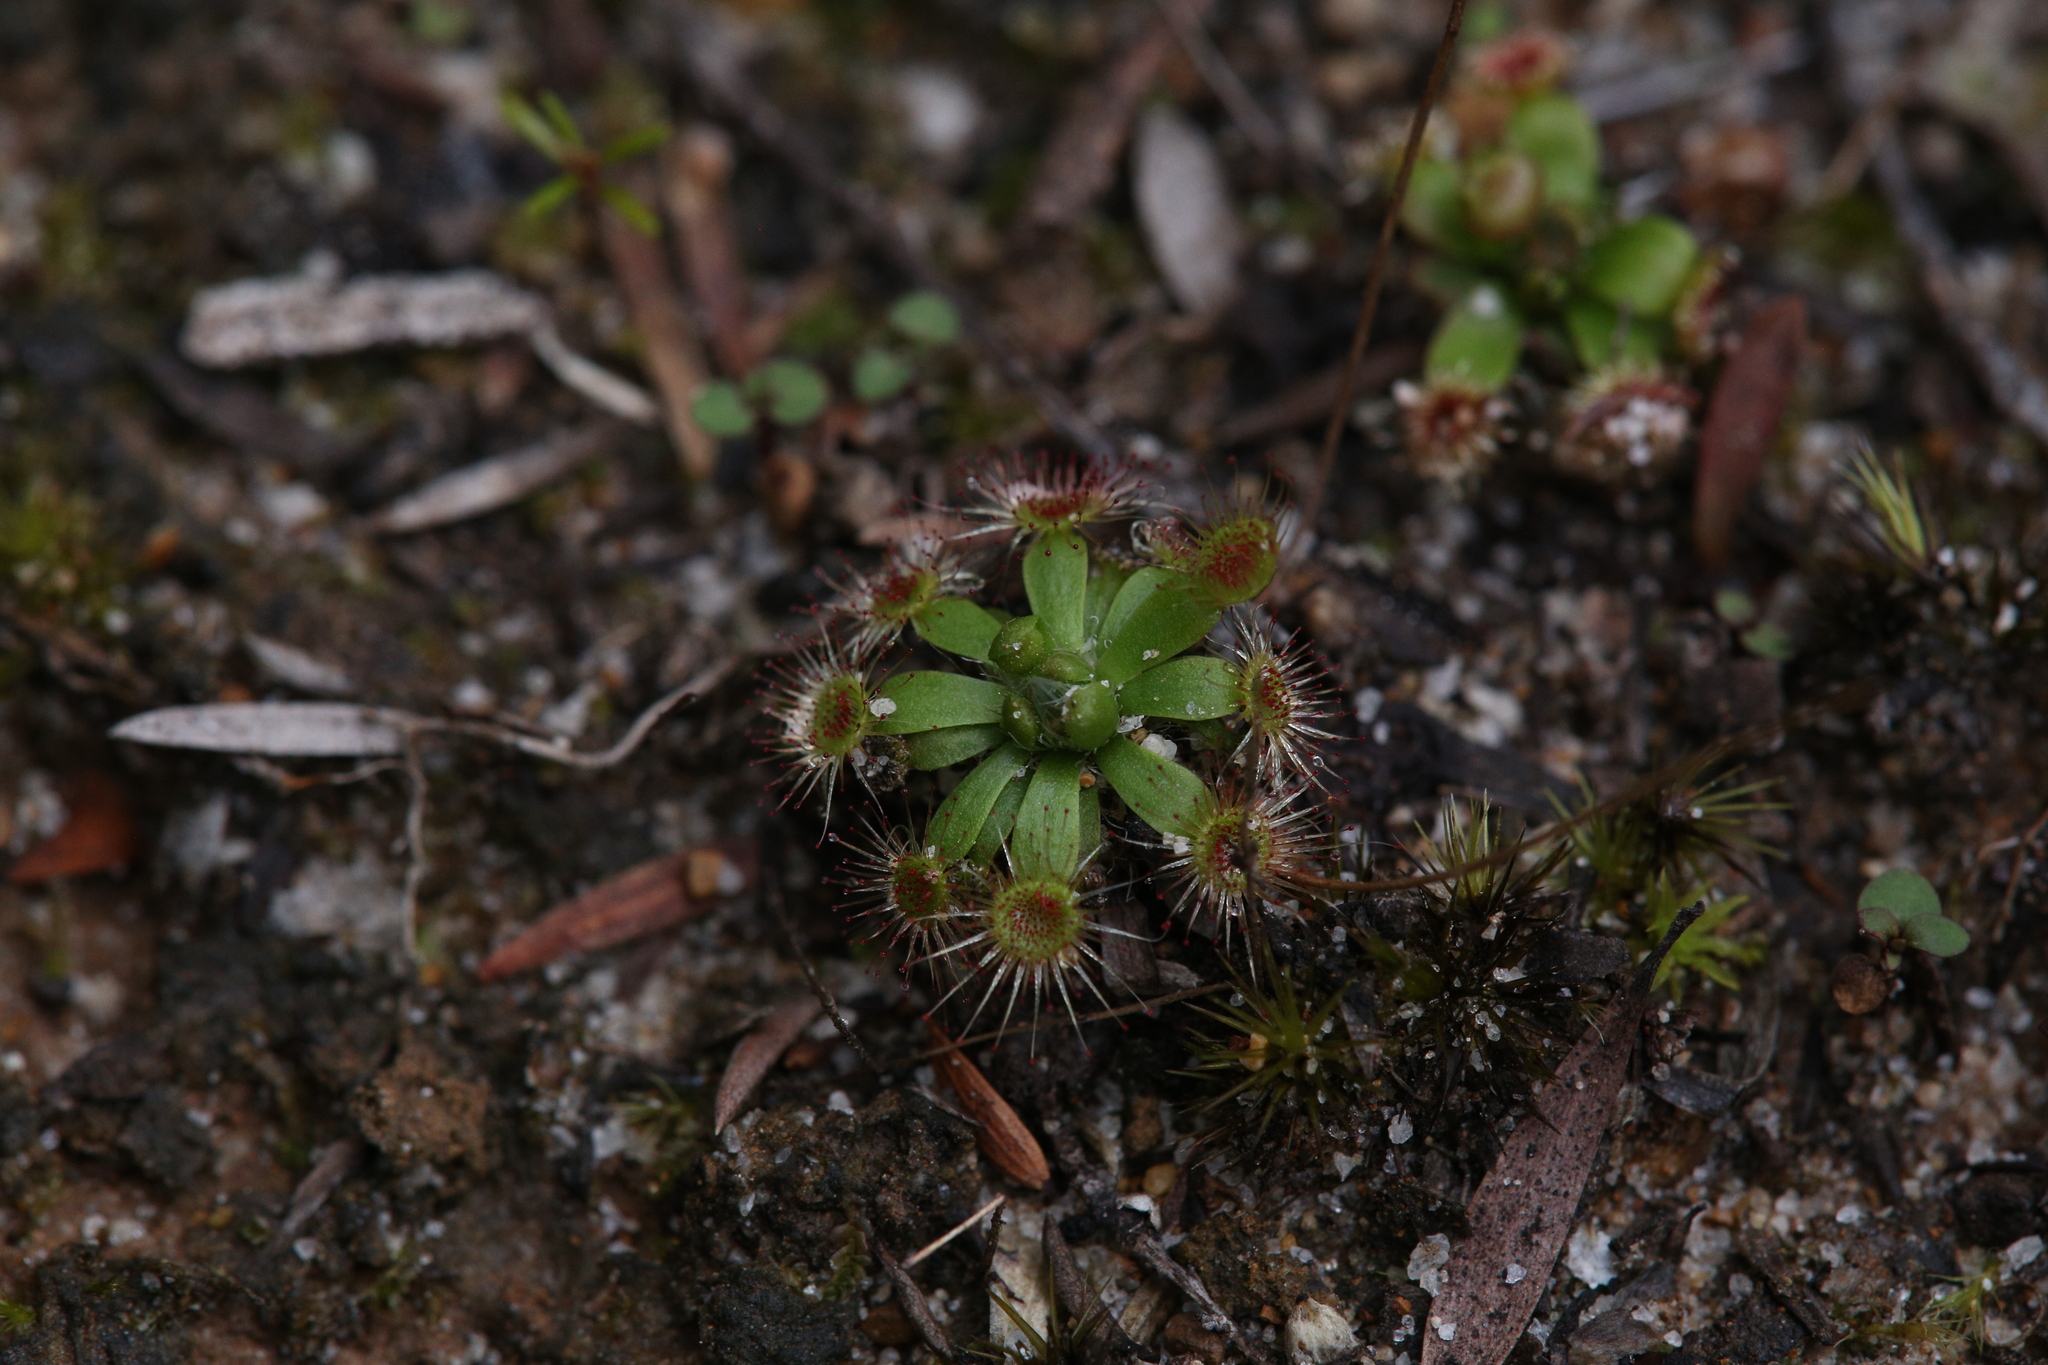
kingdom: Plantae
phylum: Tracheophyta
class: Magnoliopsida
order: Caryophyllales
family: Droseraceae
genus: Drosera
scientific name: Drosera pulchella
